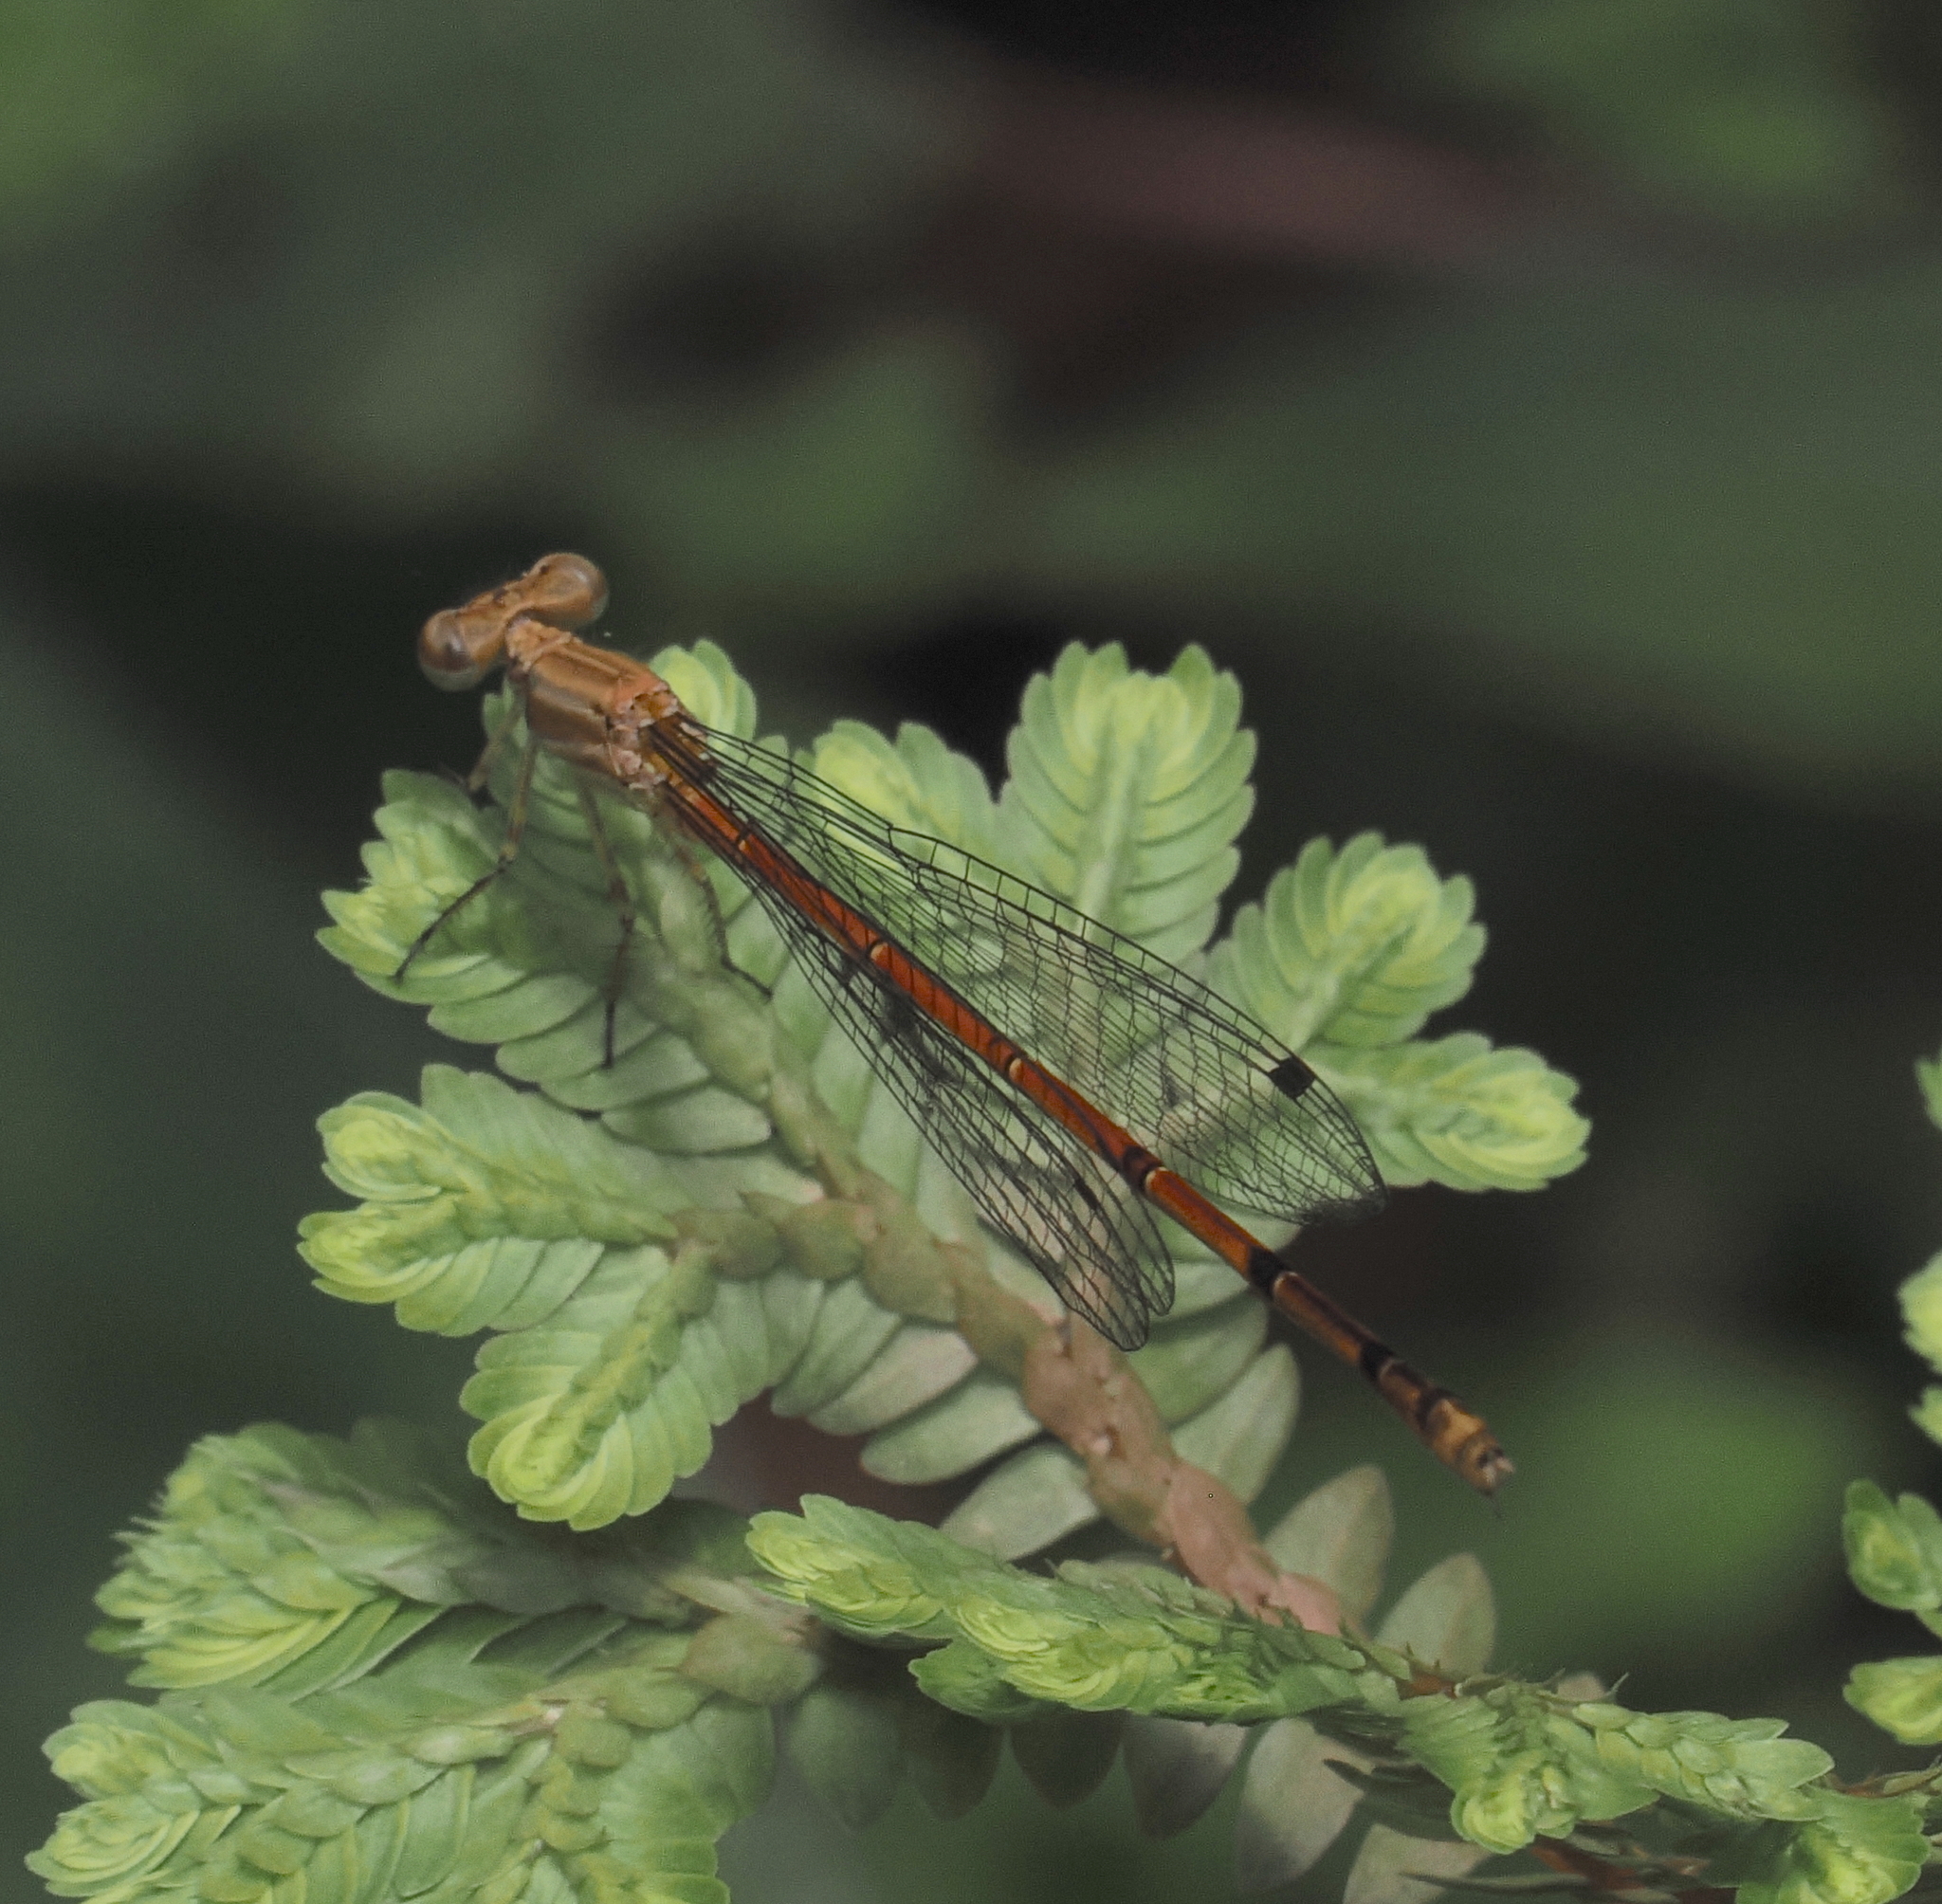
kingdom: Animalia
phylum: Arthropoda
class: Insecta
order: Odonata
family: Coenagrionidae
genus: Telebasis
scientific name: Telebasis farcimentum
